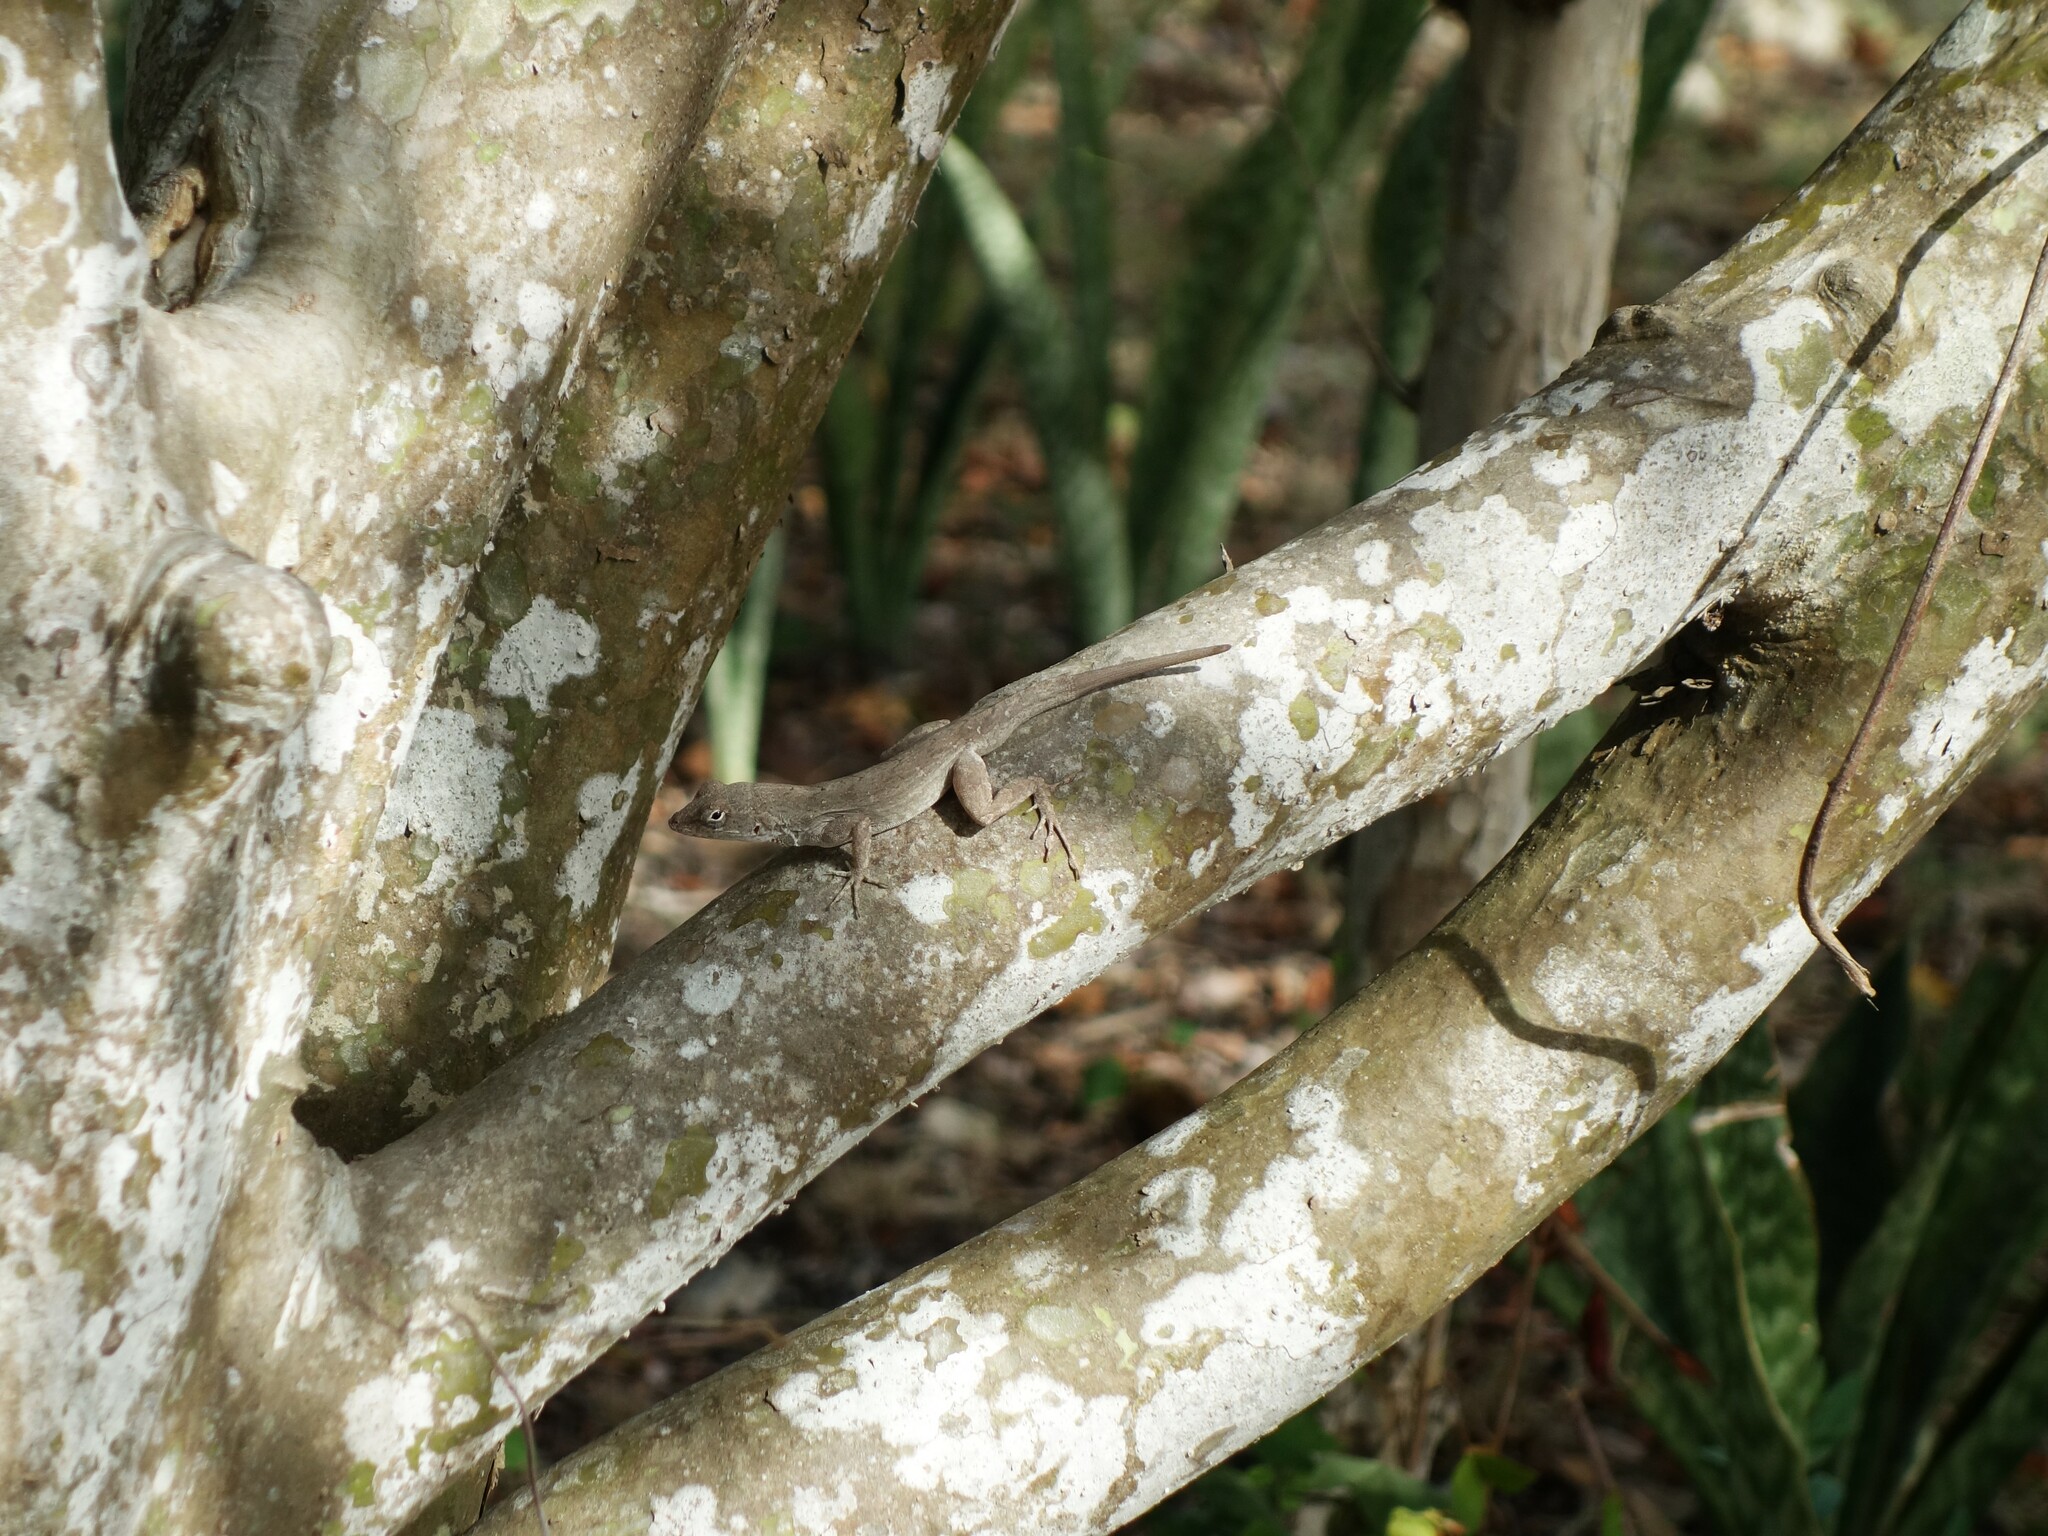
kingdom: Animalia
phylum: Chordata
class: Squamata
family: Dactyloidae
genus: Anolis
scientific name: Anolis jubar
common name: Cubitas anole
